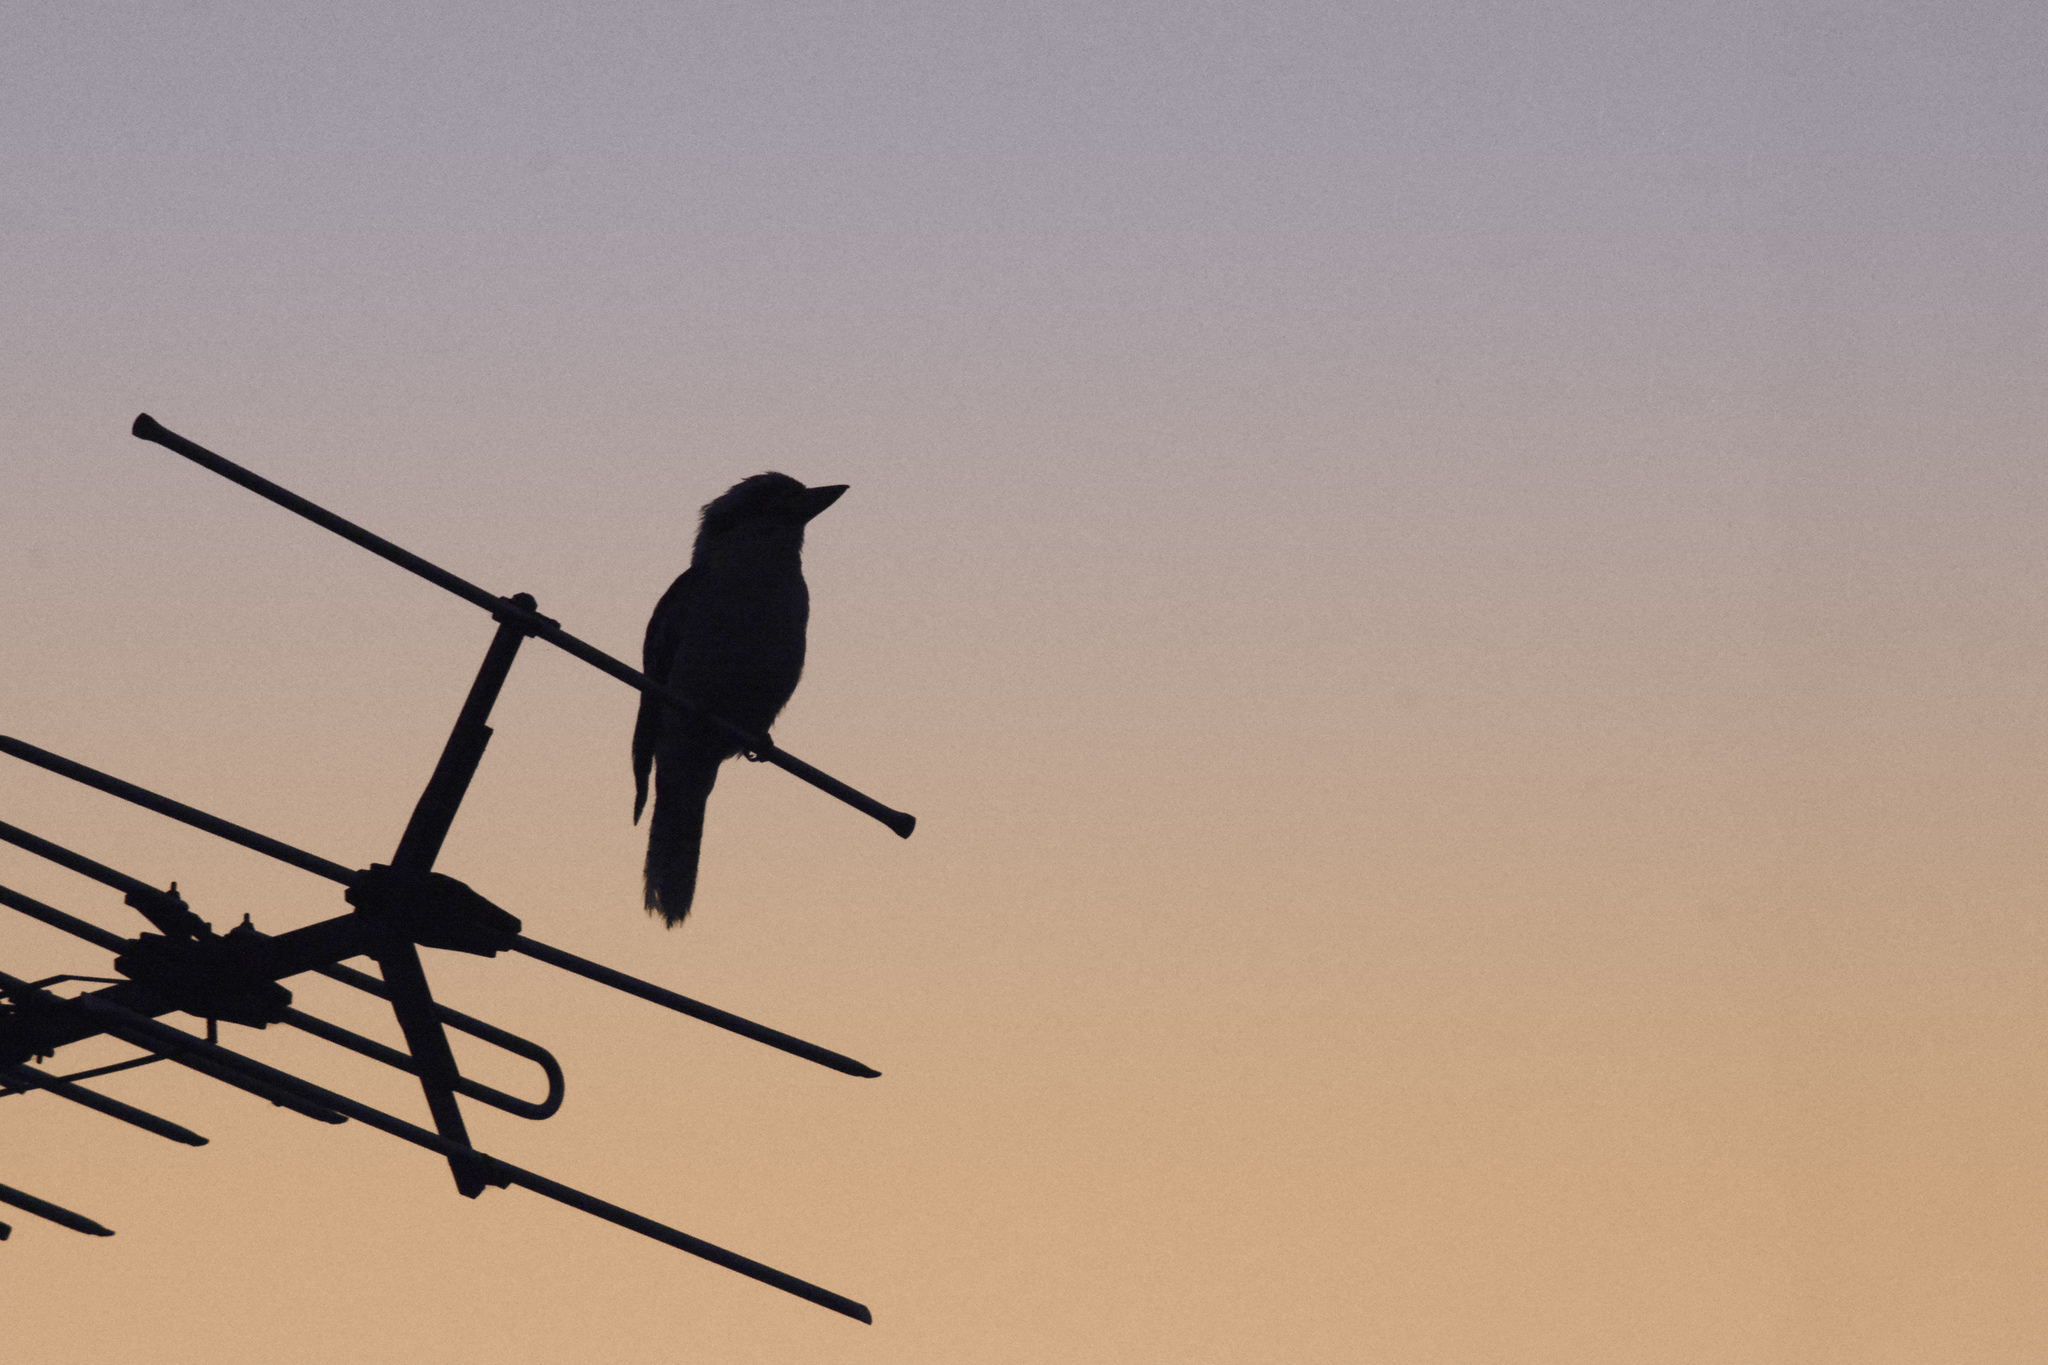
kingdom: Animalia
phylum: Chordata
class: Aves
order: Coraciiformes
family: Alcedinidae
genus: Dacelo
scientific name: Dacelo novaeguineae
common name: Laughing kookaburra
